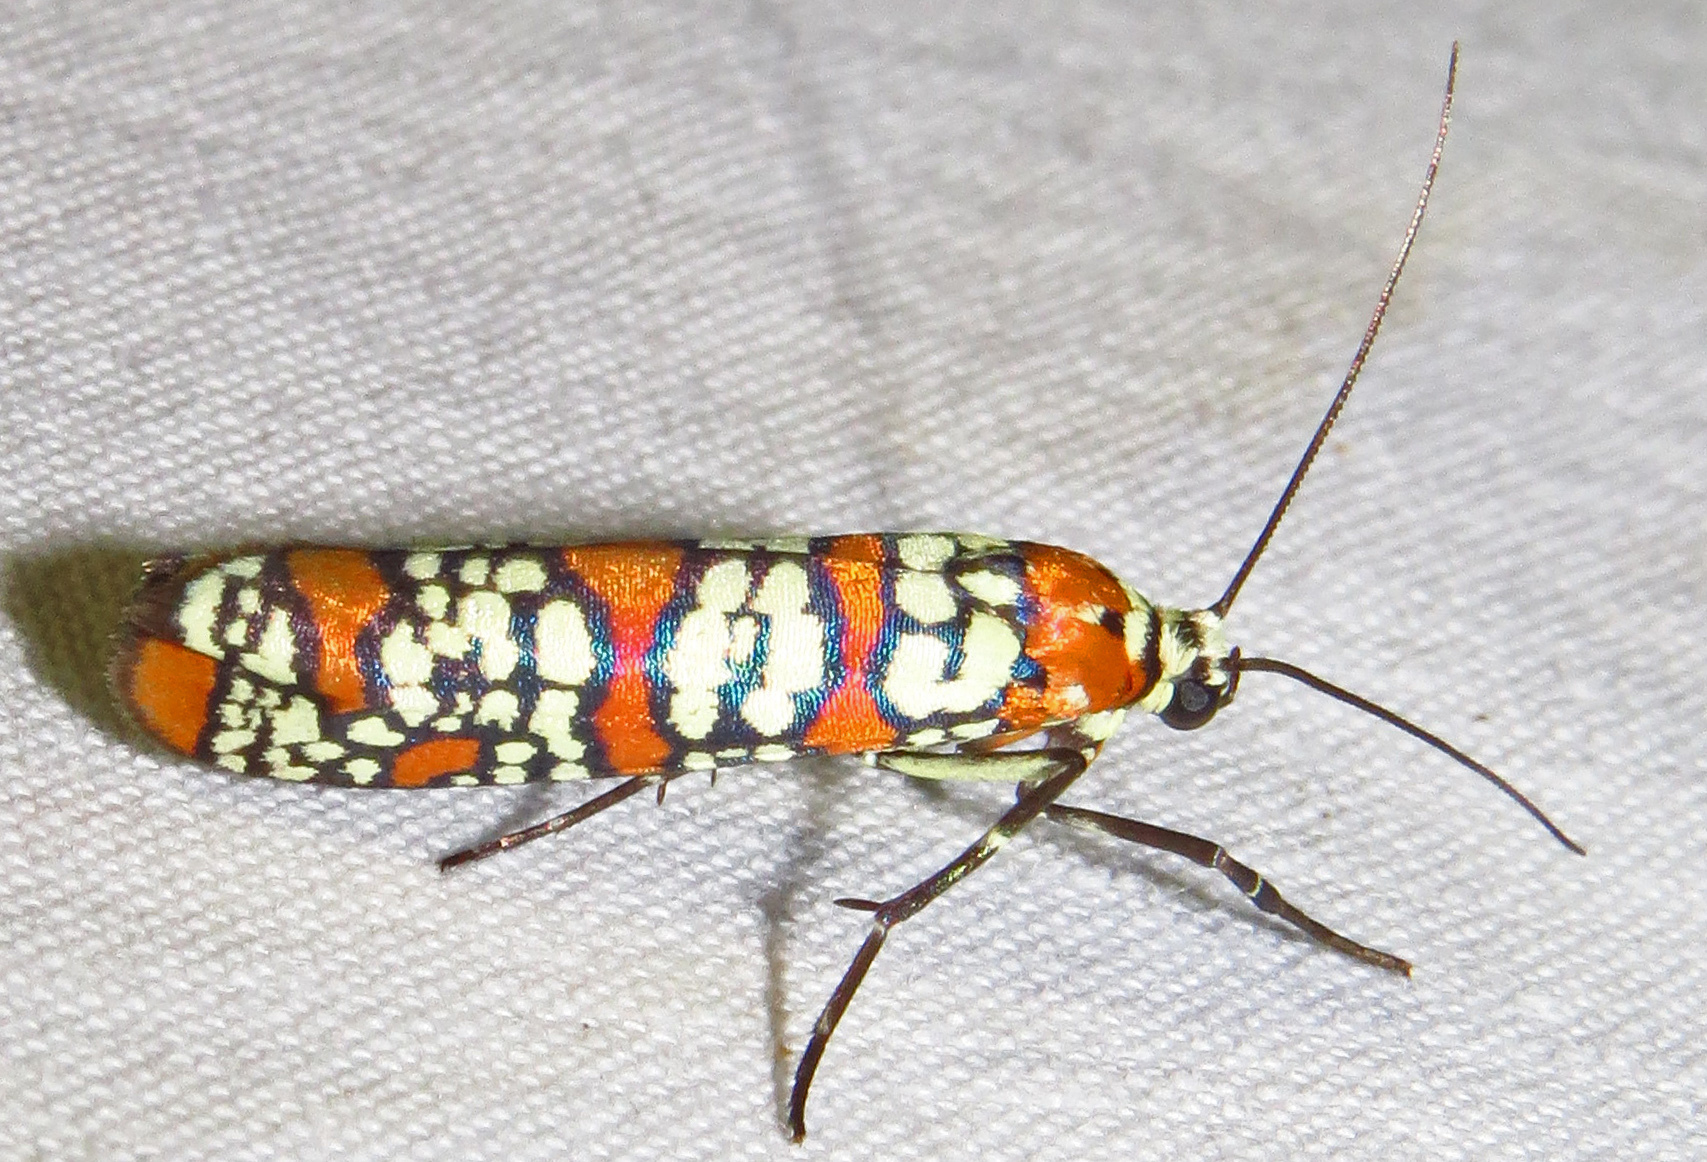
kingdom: Animalia
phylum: Arthropoda
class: Insecta
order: Lepidoptera
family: Attevidae
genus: Atteva
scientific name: Atteva punctella
